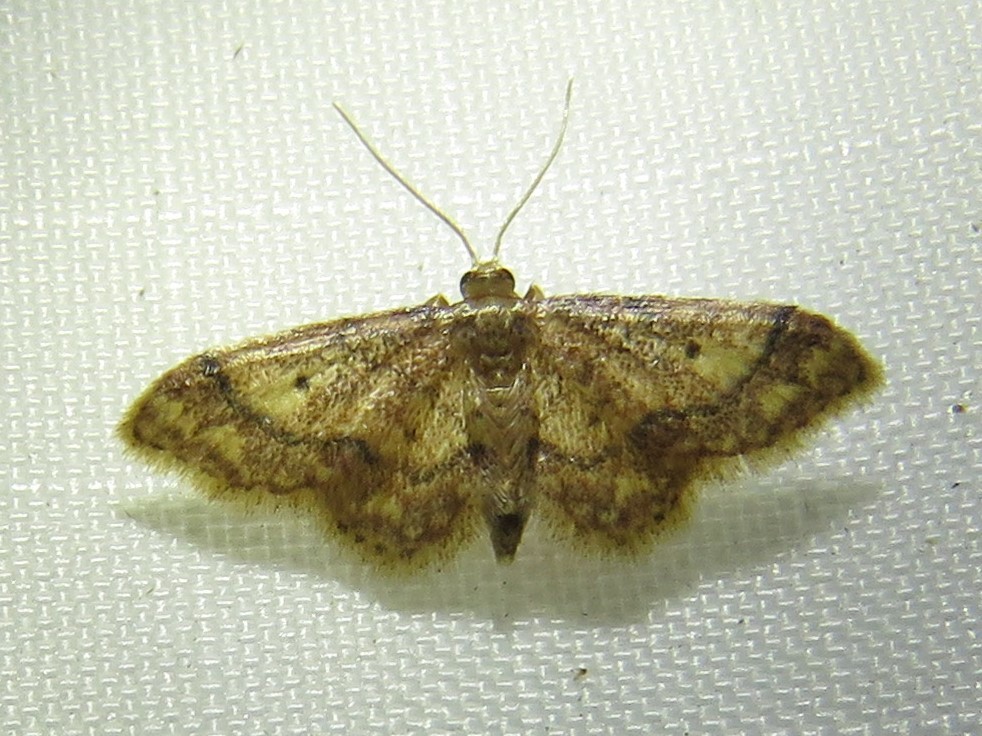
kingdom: Animalia
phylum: Arthropoda
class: Insecta
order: Lepidoptera
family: Geometridae
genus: Idaea
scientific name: Idaea celtima
